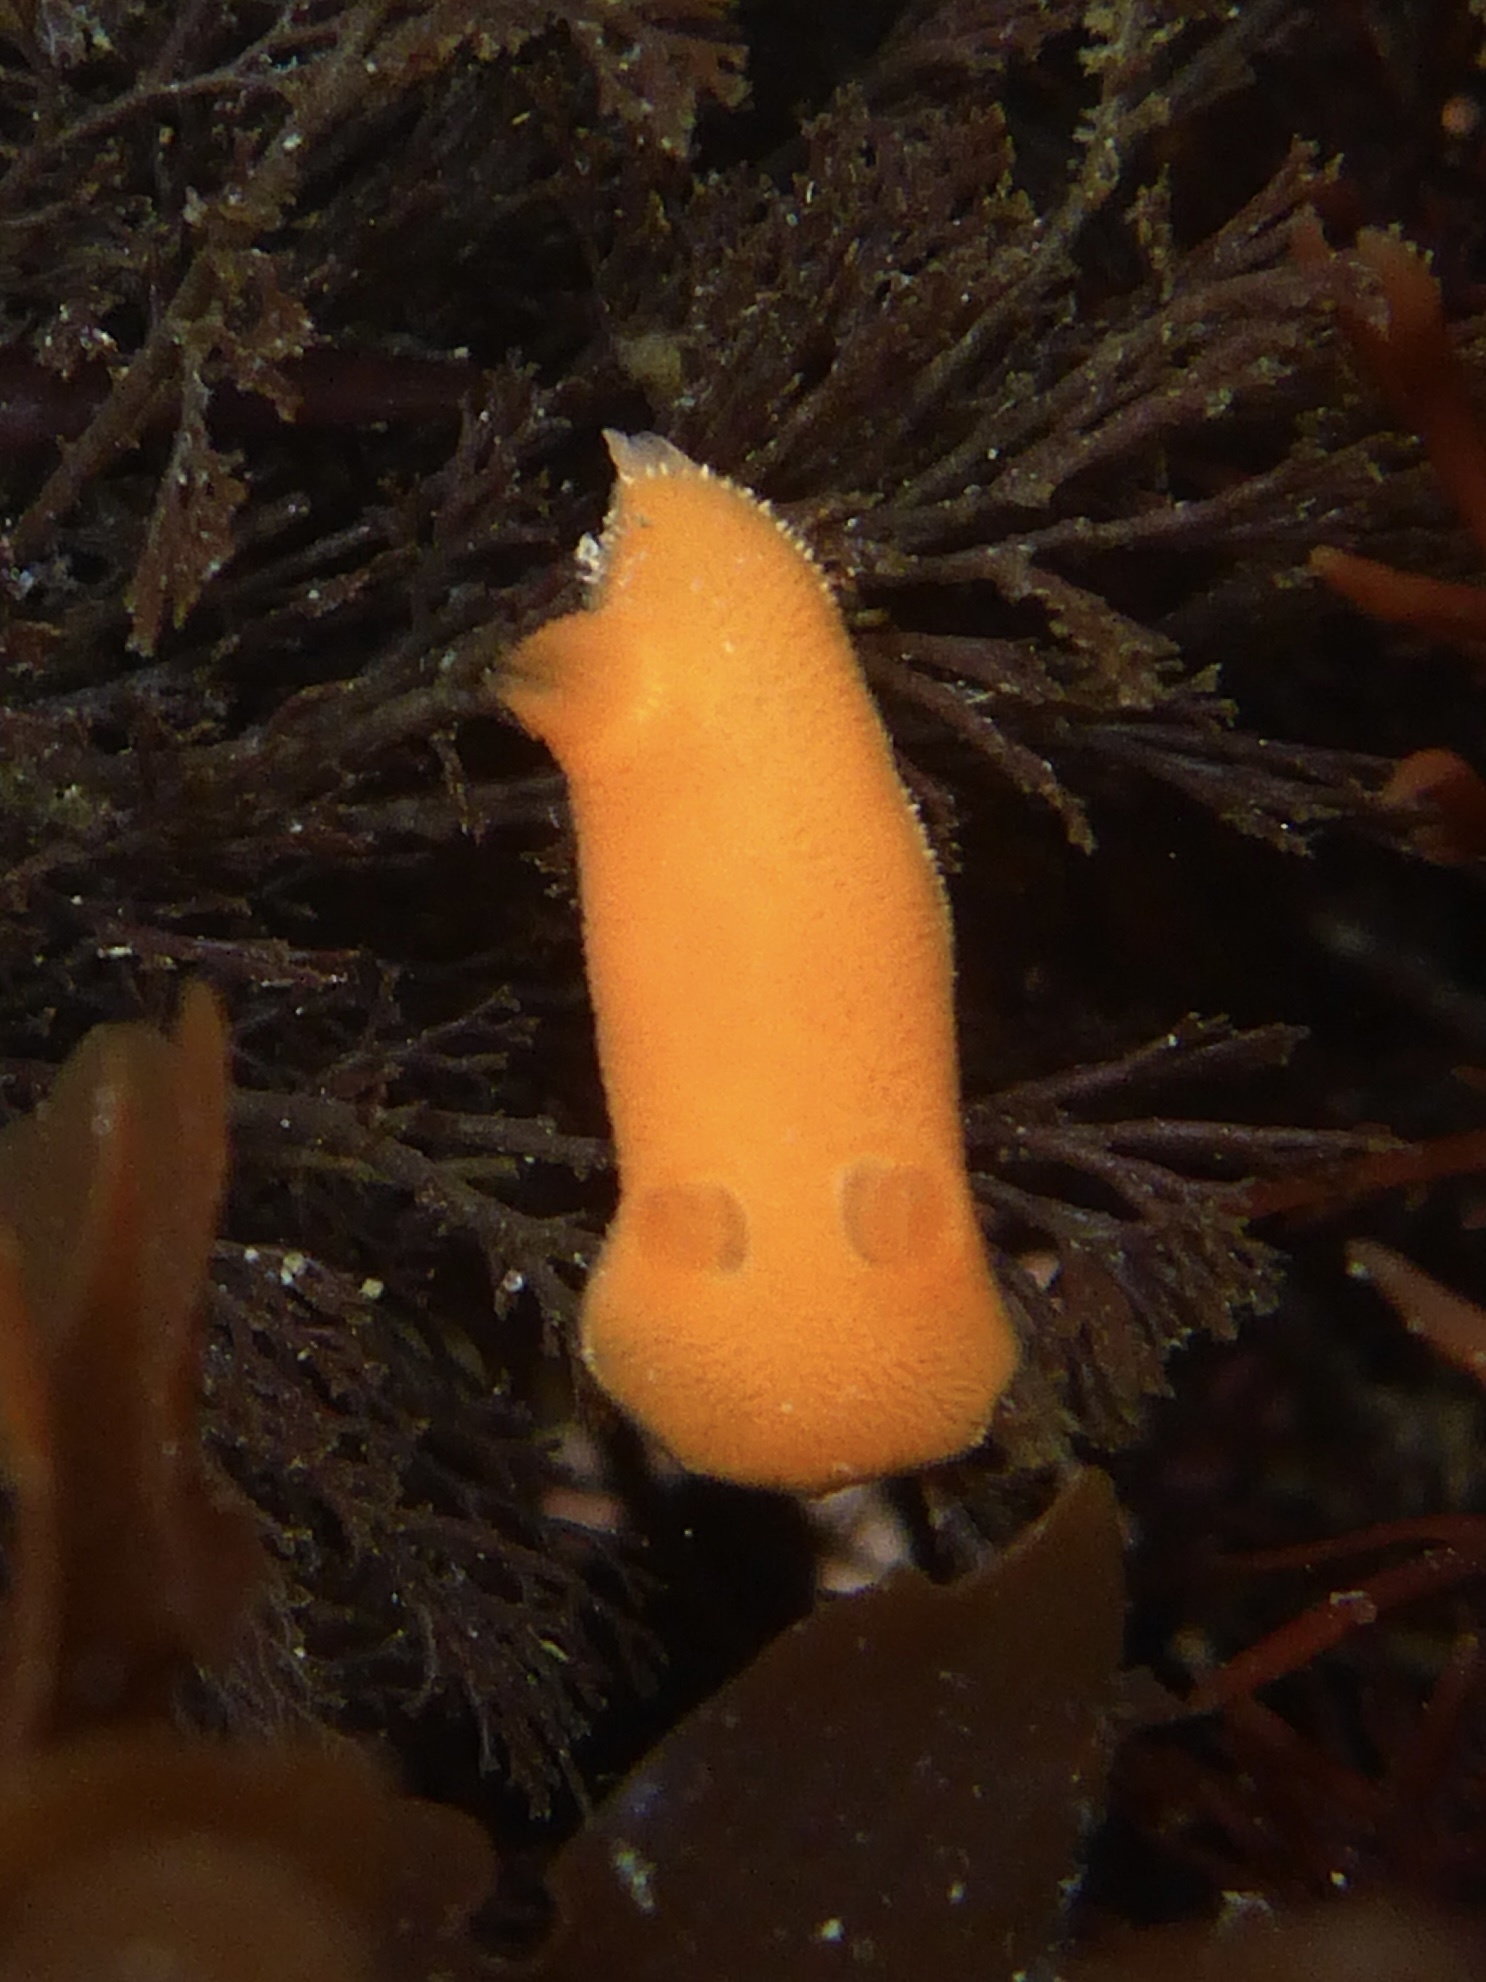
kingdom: Animalia
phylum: Mollusca
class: Gastropoda
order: Nudibranchia
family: Discodorididae
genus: Rostanga
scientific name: Rostanga pulchra
